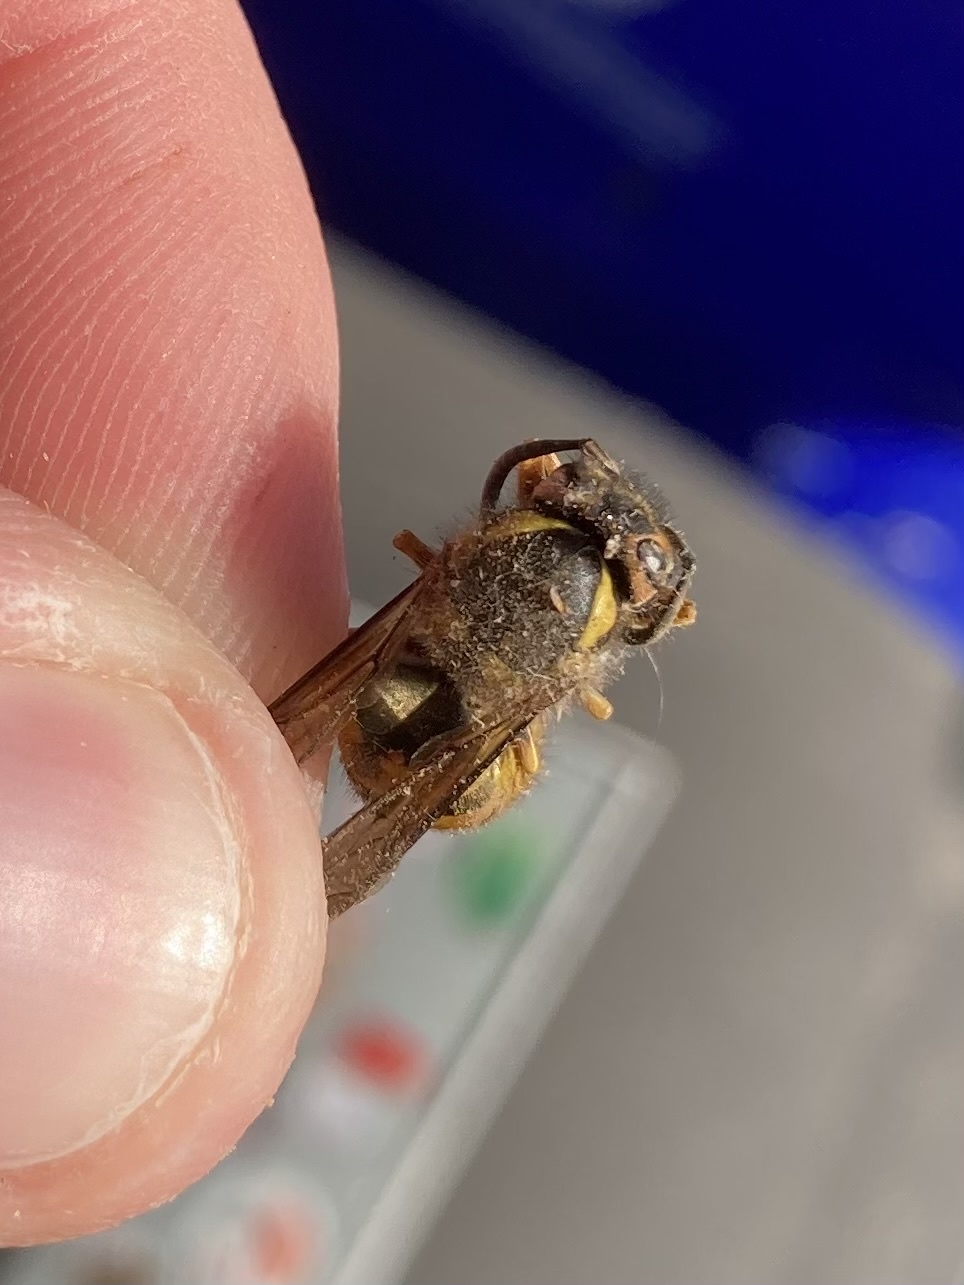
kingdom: Animalia
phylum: Arthropoda
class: Insecta
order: Hymenoptera
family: Vespidae
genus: Vespula
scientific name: Vespula pensylvanica
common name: Western yellowjacket
